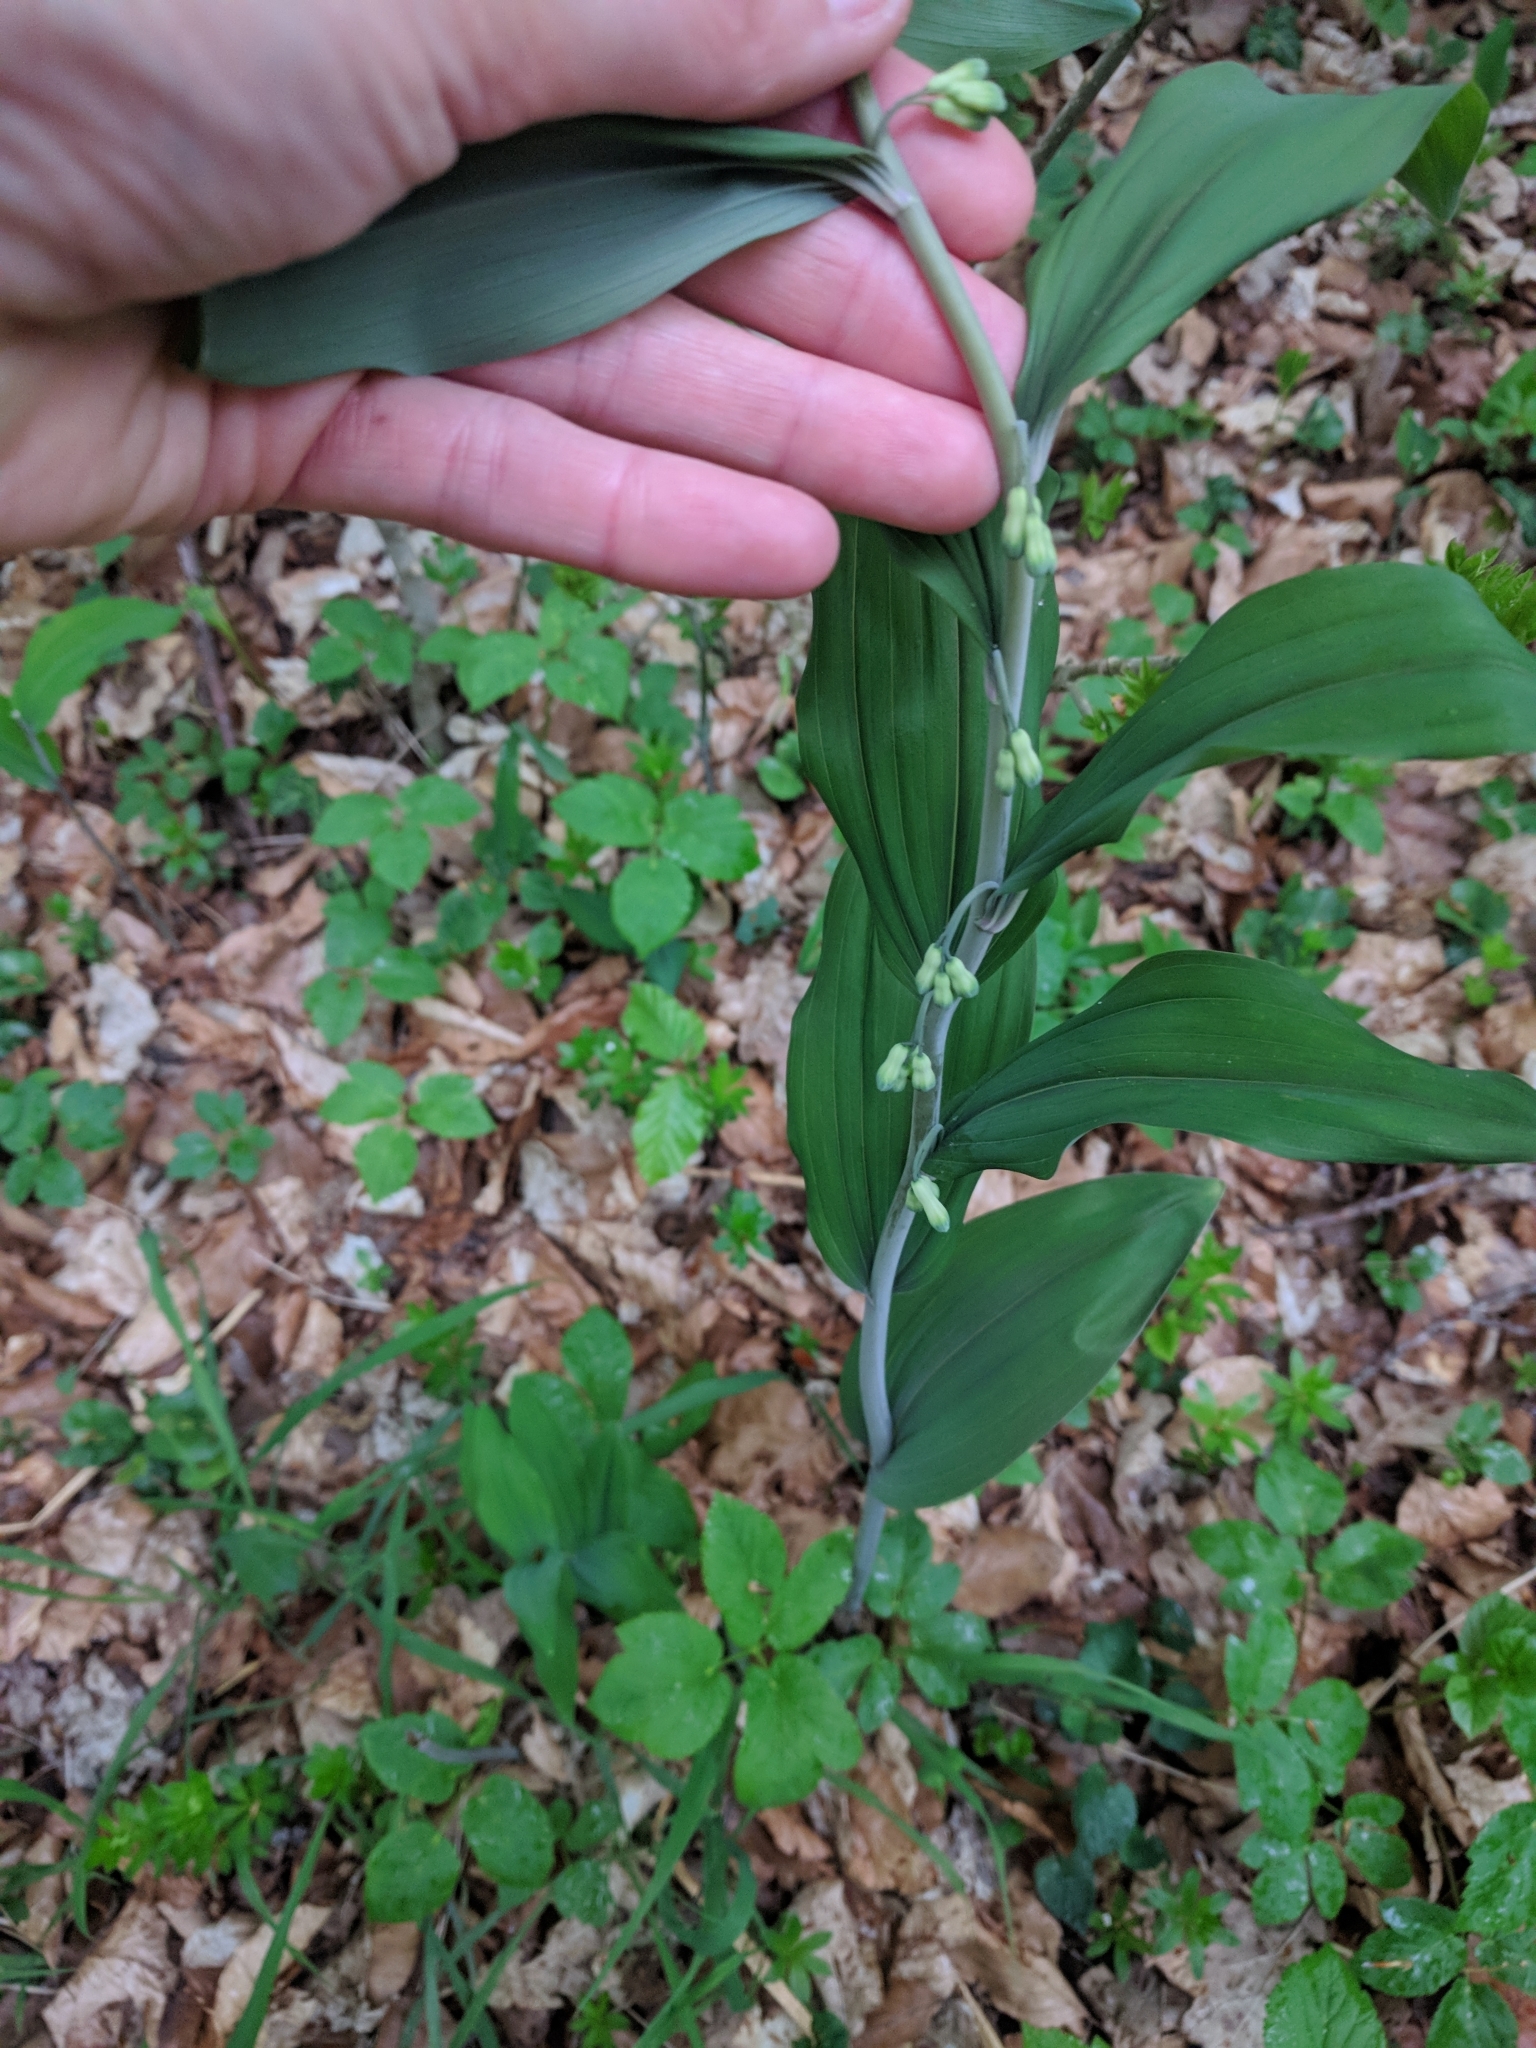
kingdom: Plantae
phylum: Tracheophyta
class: Liliopsida
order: Asparagales
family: Asparagaceae
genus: Polygonatum
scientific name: Polygonatum multiflorum
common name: Solomon's-seal
